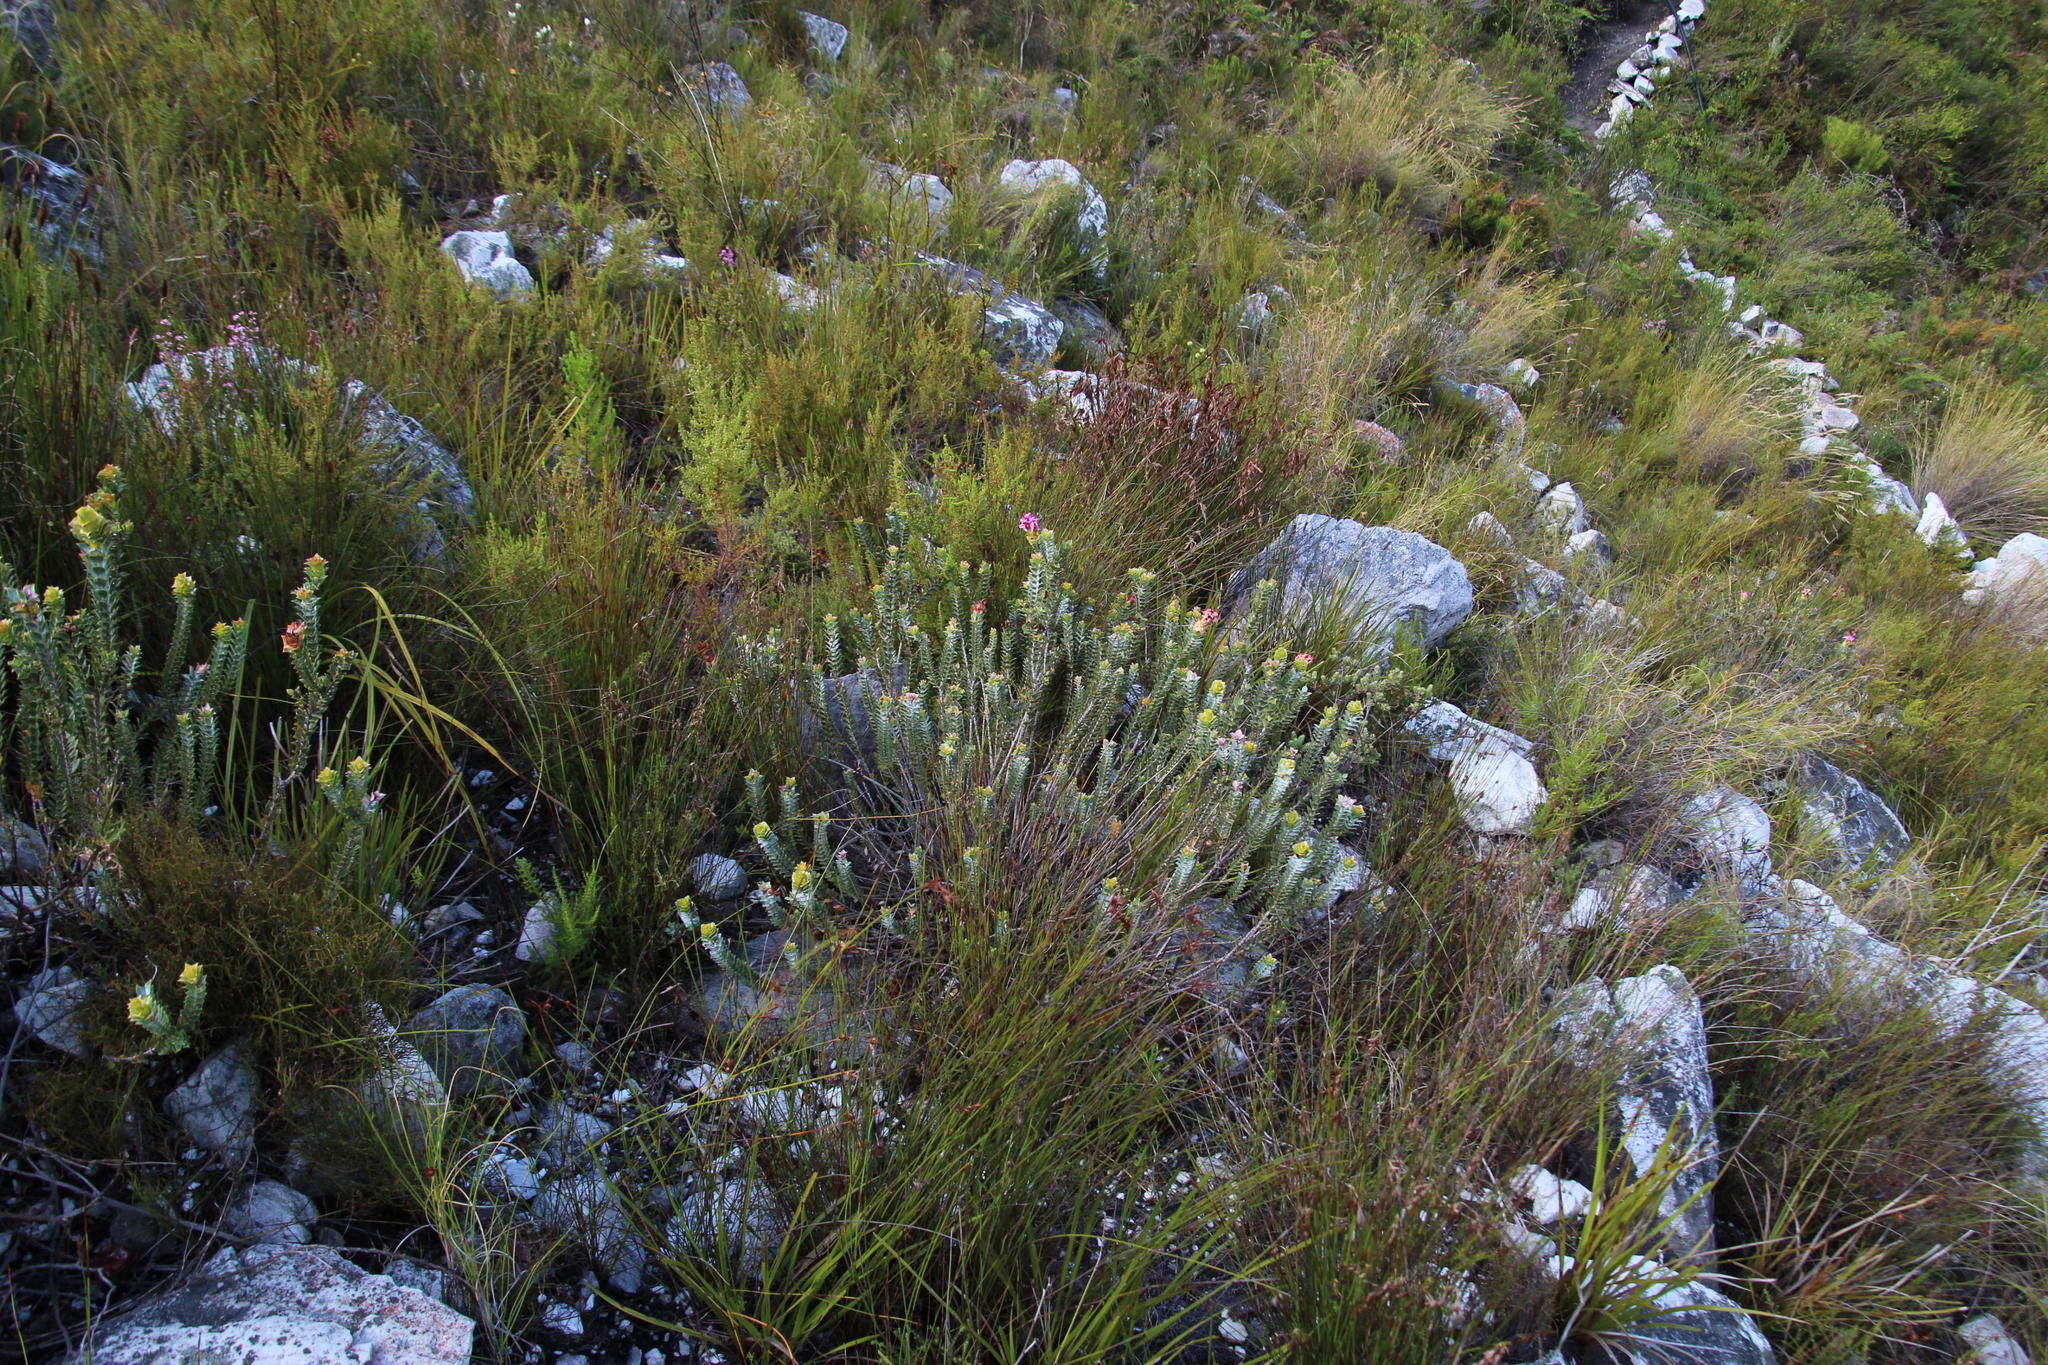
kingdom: Plantae
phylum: Tracheophyta
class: Magnoliopsida
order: Myrtales
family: Penaeaceae
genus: Saltera
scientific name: Saltera sarcocolla
